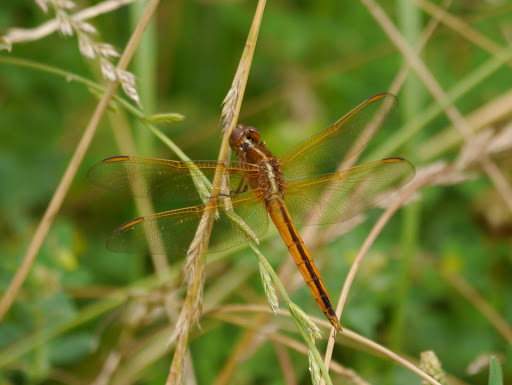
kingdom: Animalia
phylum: Arthropoda
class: Insecta
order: Odonata
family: Libellulidae
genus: Libellula
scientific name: Libellula needhami
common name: Needham's skimmer
